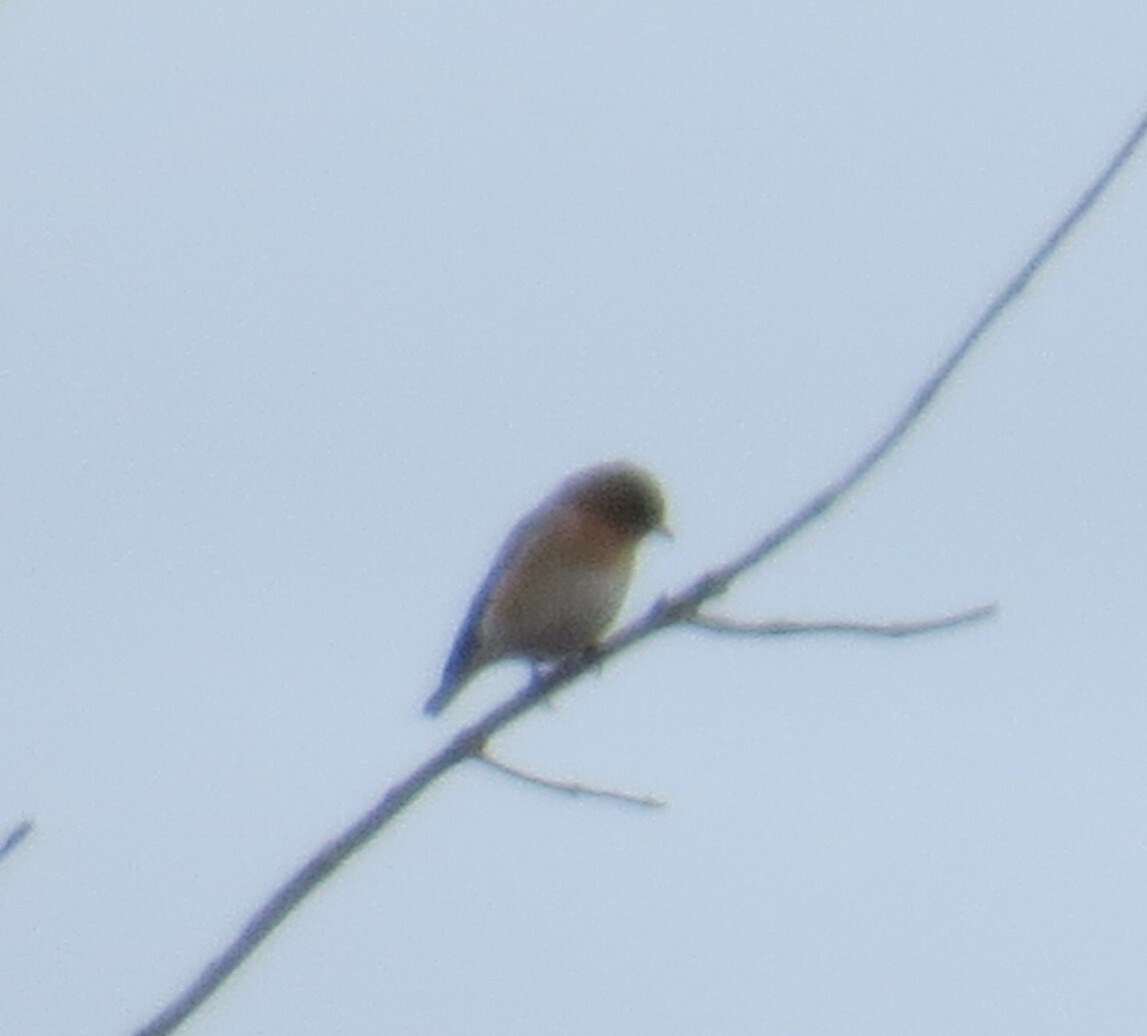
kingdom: Animalia
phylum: Chordata
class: Aves
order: Passeriformes
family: Turdidae
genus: Sialia
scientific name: Sialia sialis
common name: Eastern bluebird
